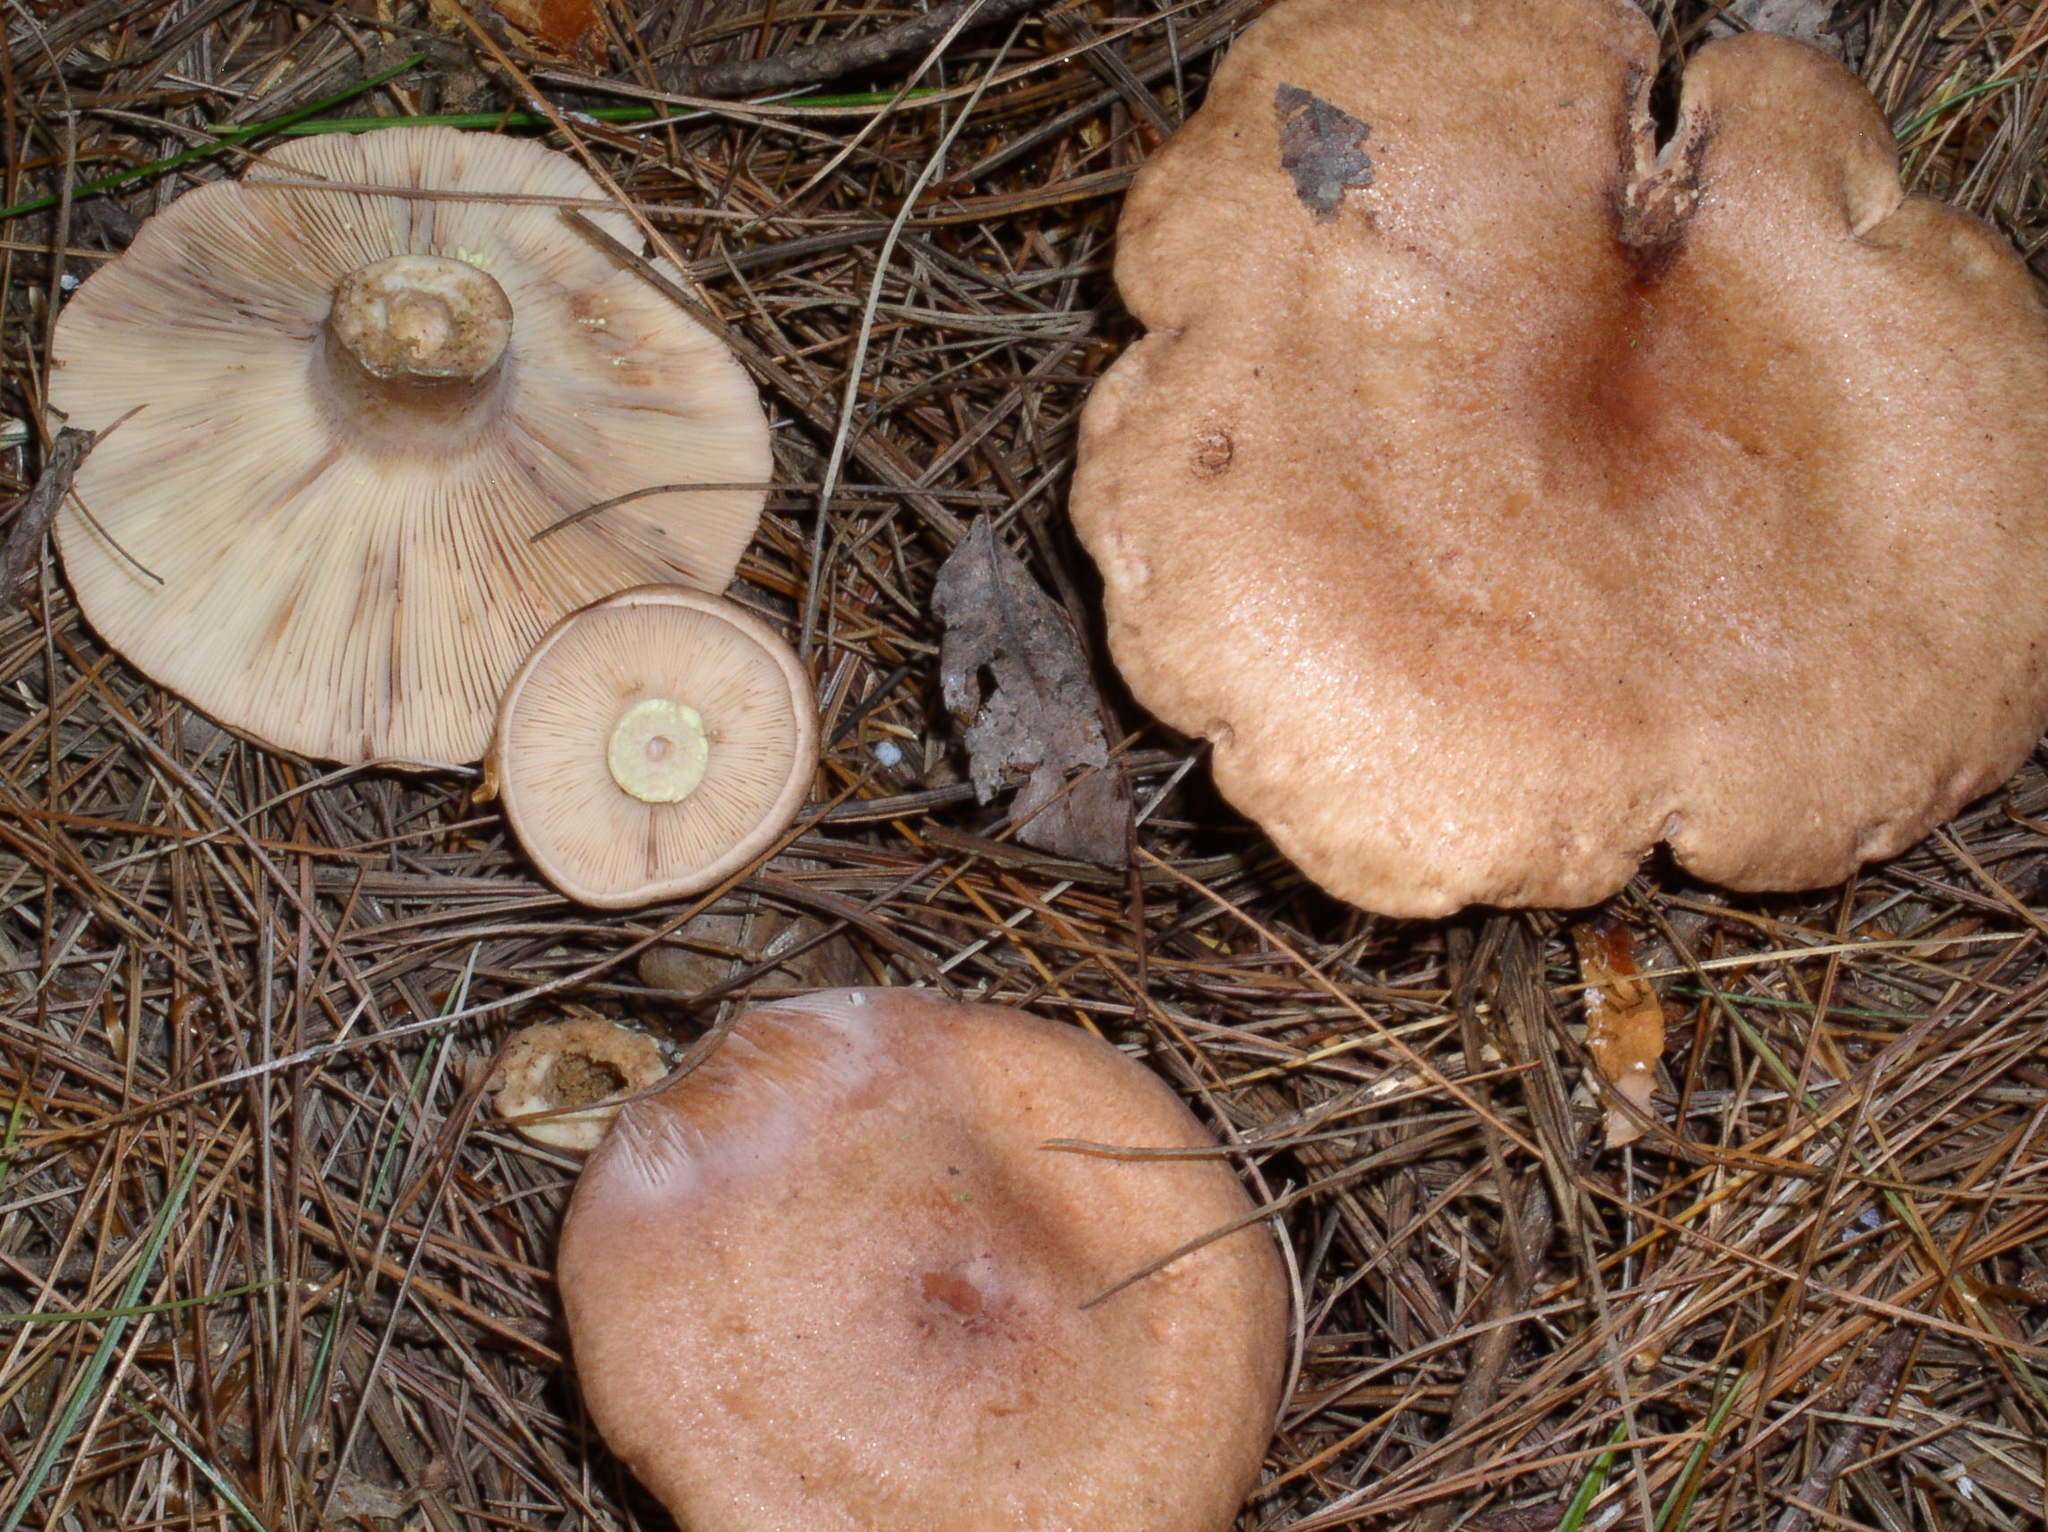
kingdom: Fungi
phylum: Basidiomycota
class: Agaricomycetes
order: Russulales
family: Russulaceae
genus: Lactarius
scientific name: Lactarius vinaceorufescens
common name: Yellow-latex milkcap
